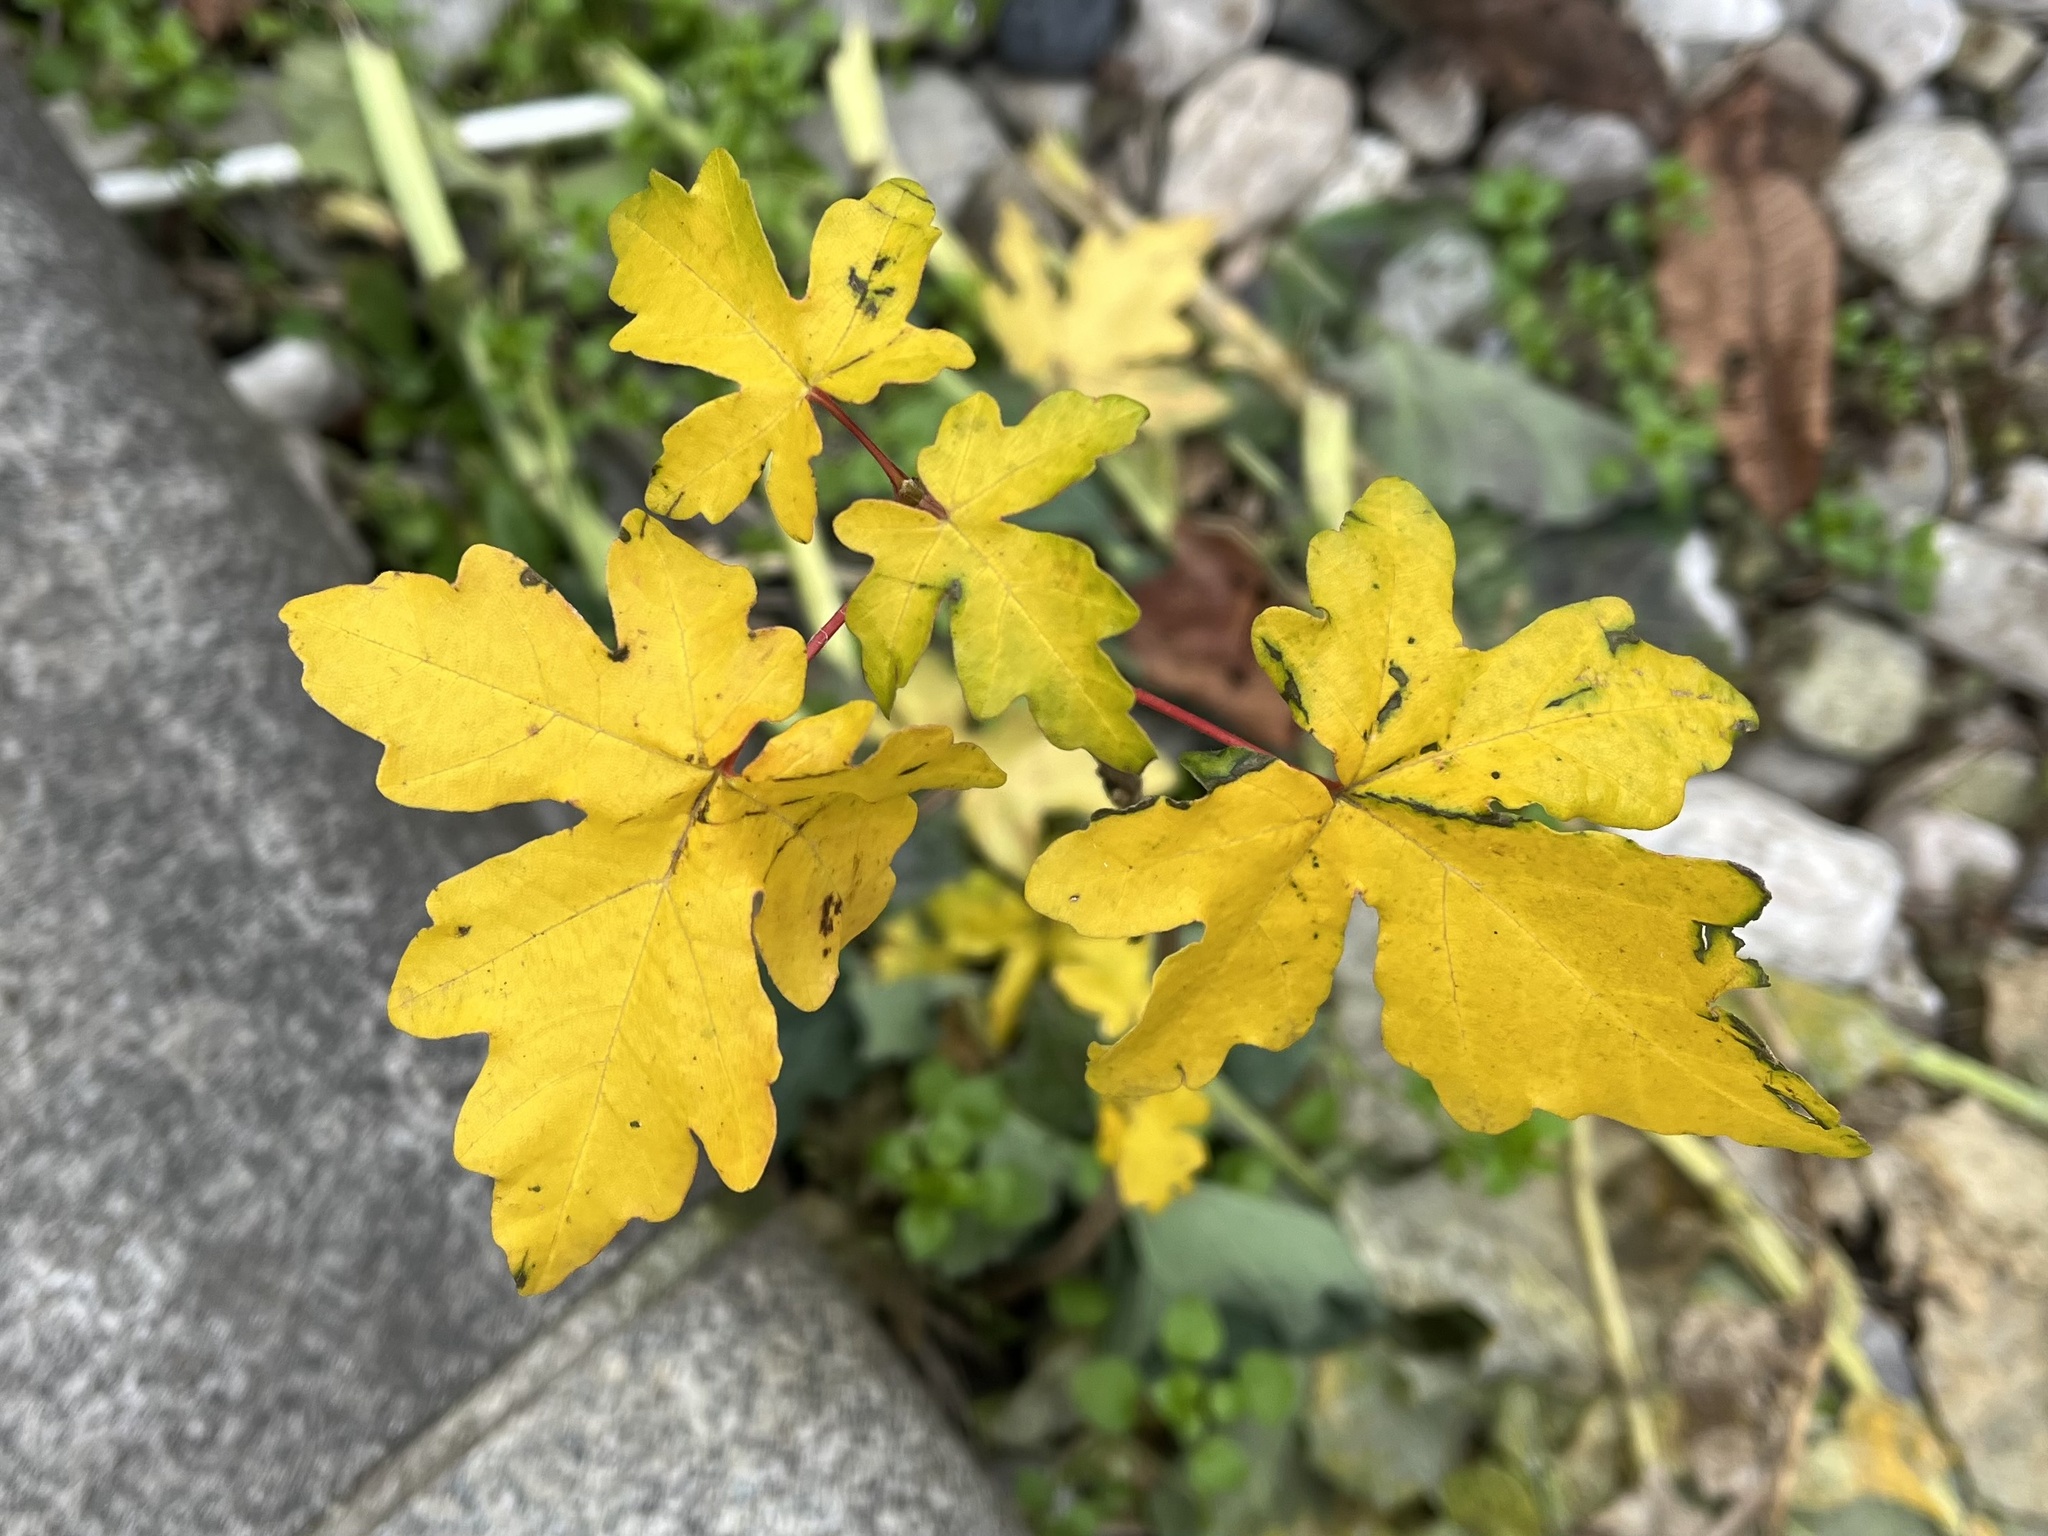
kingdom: Plantae
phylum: Tracheophyta
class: Magnoliopsida
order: Sapindales
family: Sapindaceae
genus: Acer
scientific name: Acer campestre
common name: Field maple
